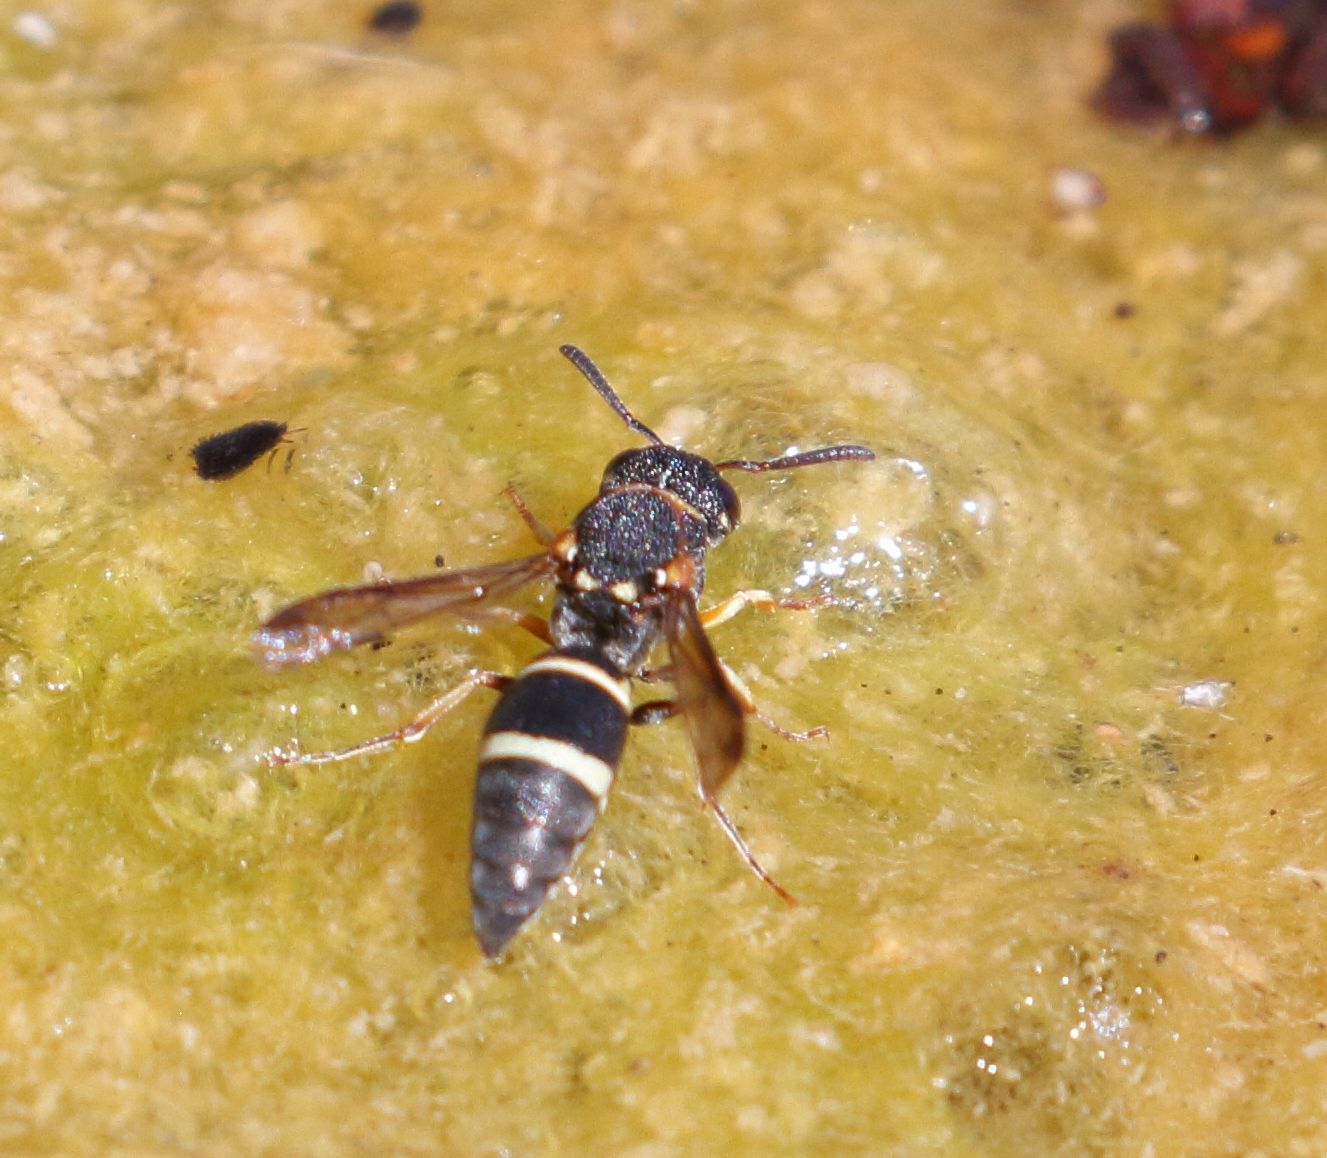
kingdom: Animalia
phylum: Arthropoda
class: Insecta
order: Hymenoptera
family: Eumenidae
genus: Antepipona
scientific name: Antepipona
